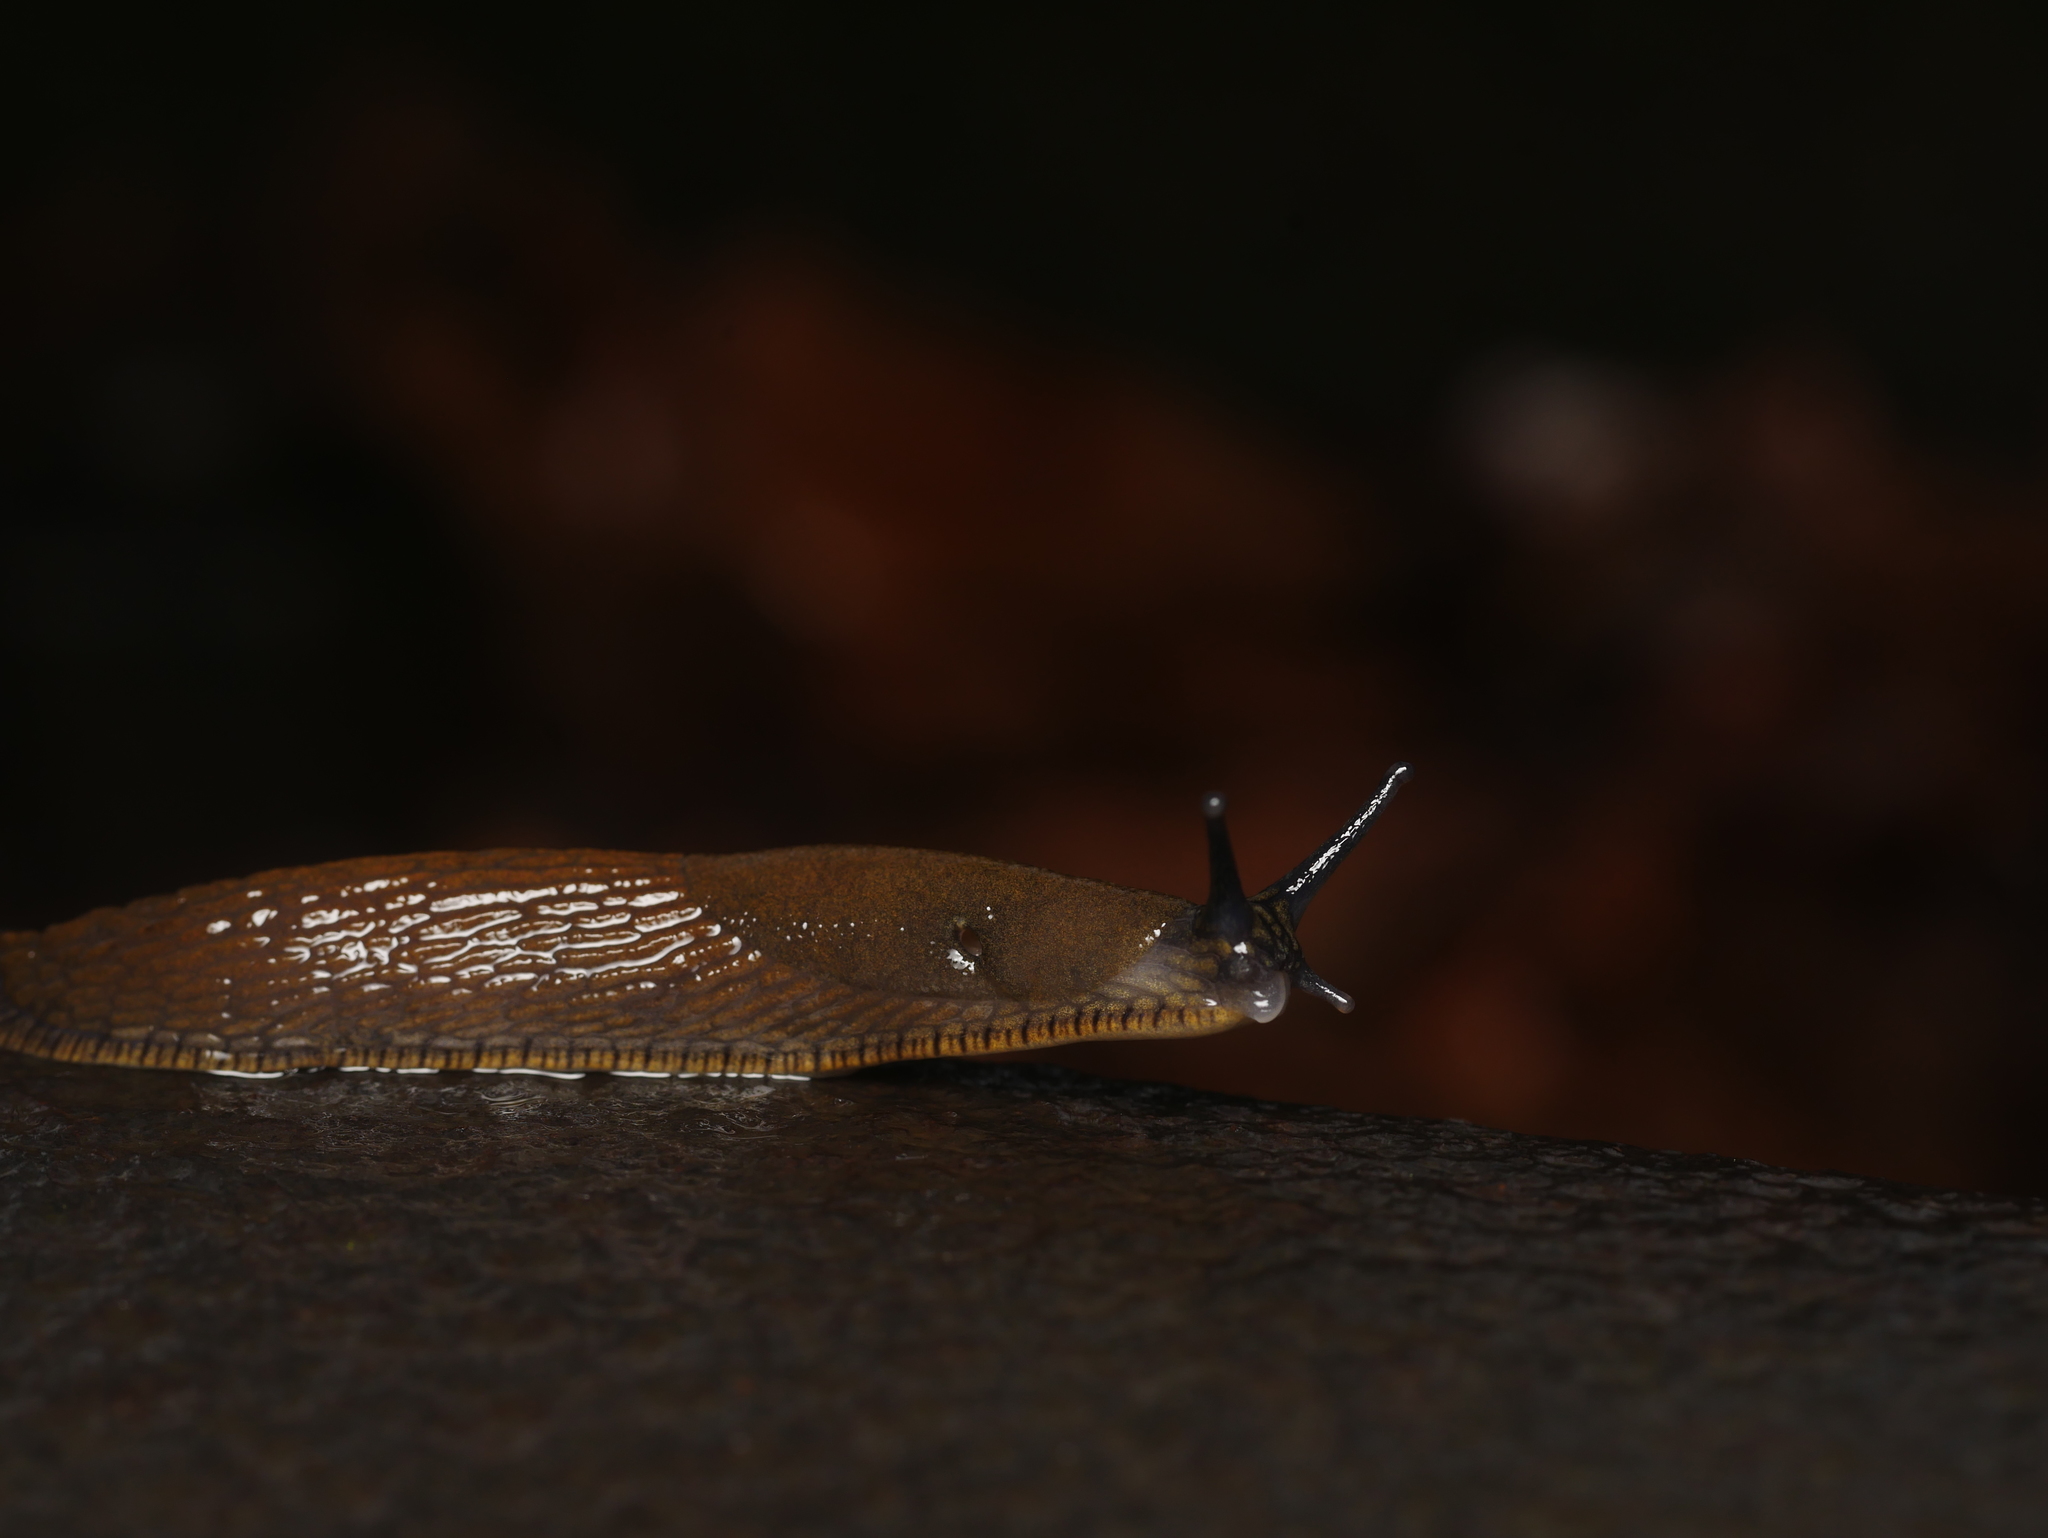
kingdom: Animalia
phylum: Mollusca
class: Gastropoda
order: Stylommatophora
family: Arionidae
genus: Arion
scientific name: Arion
